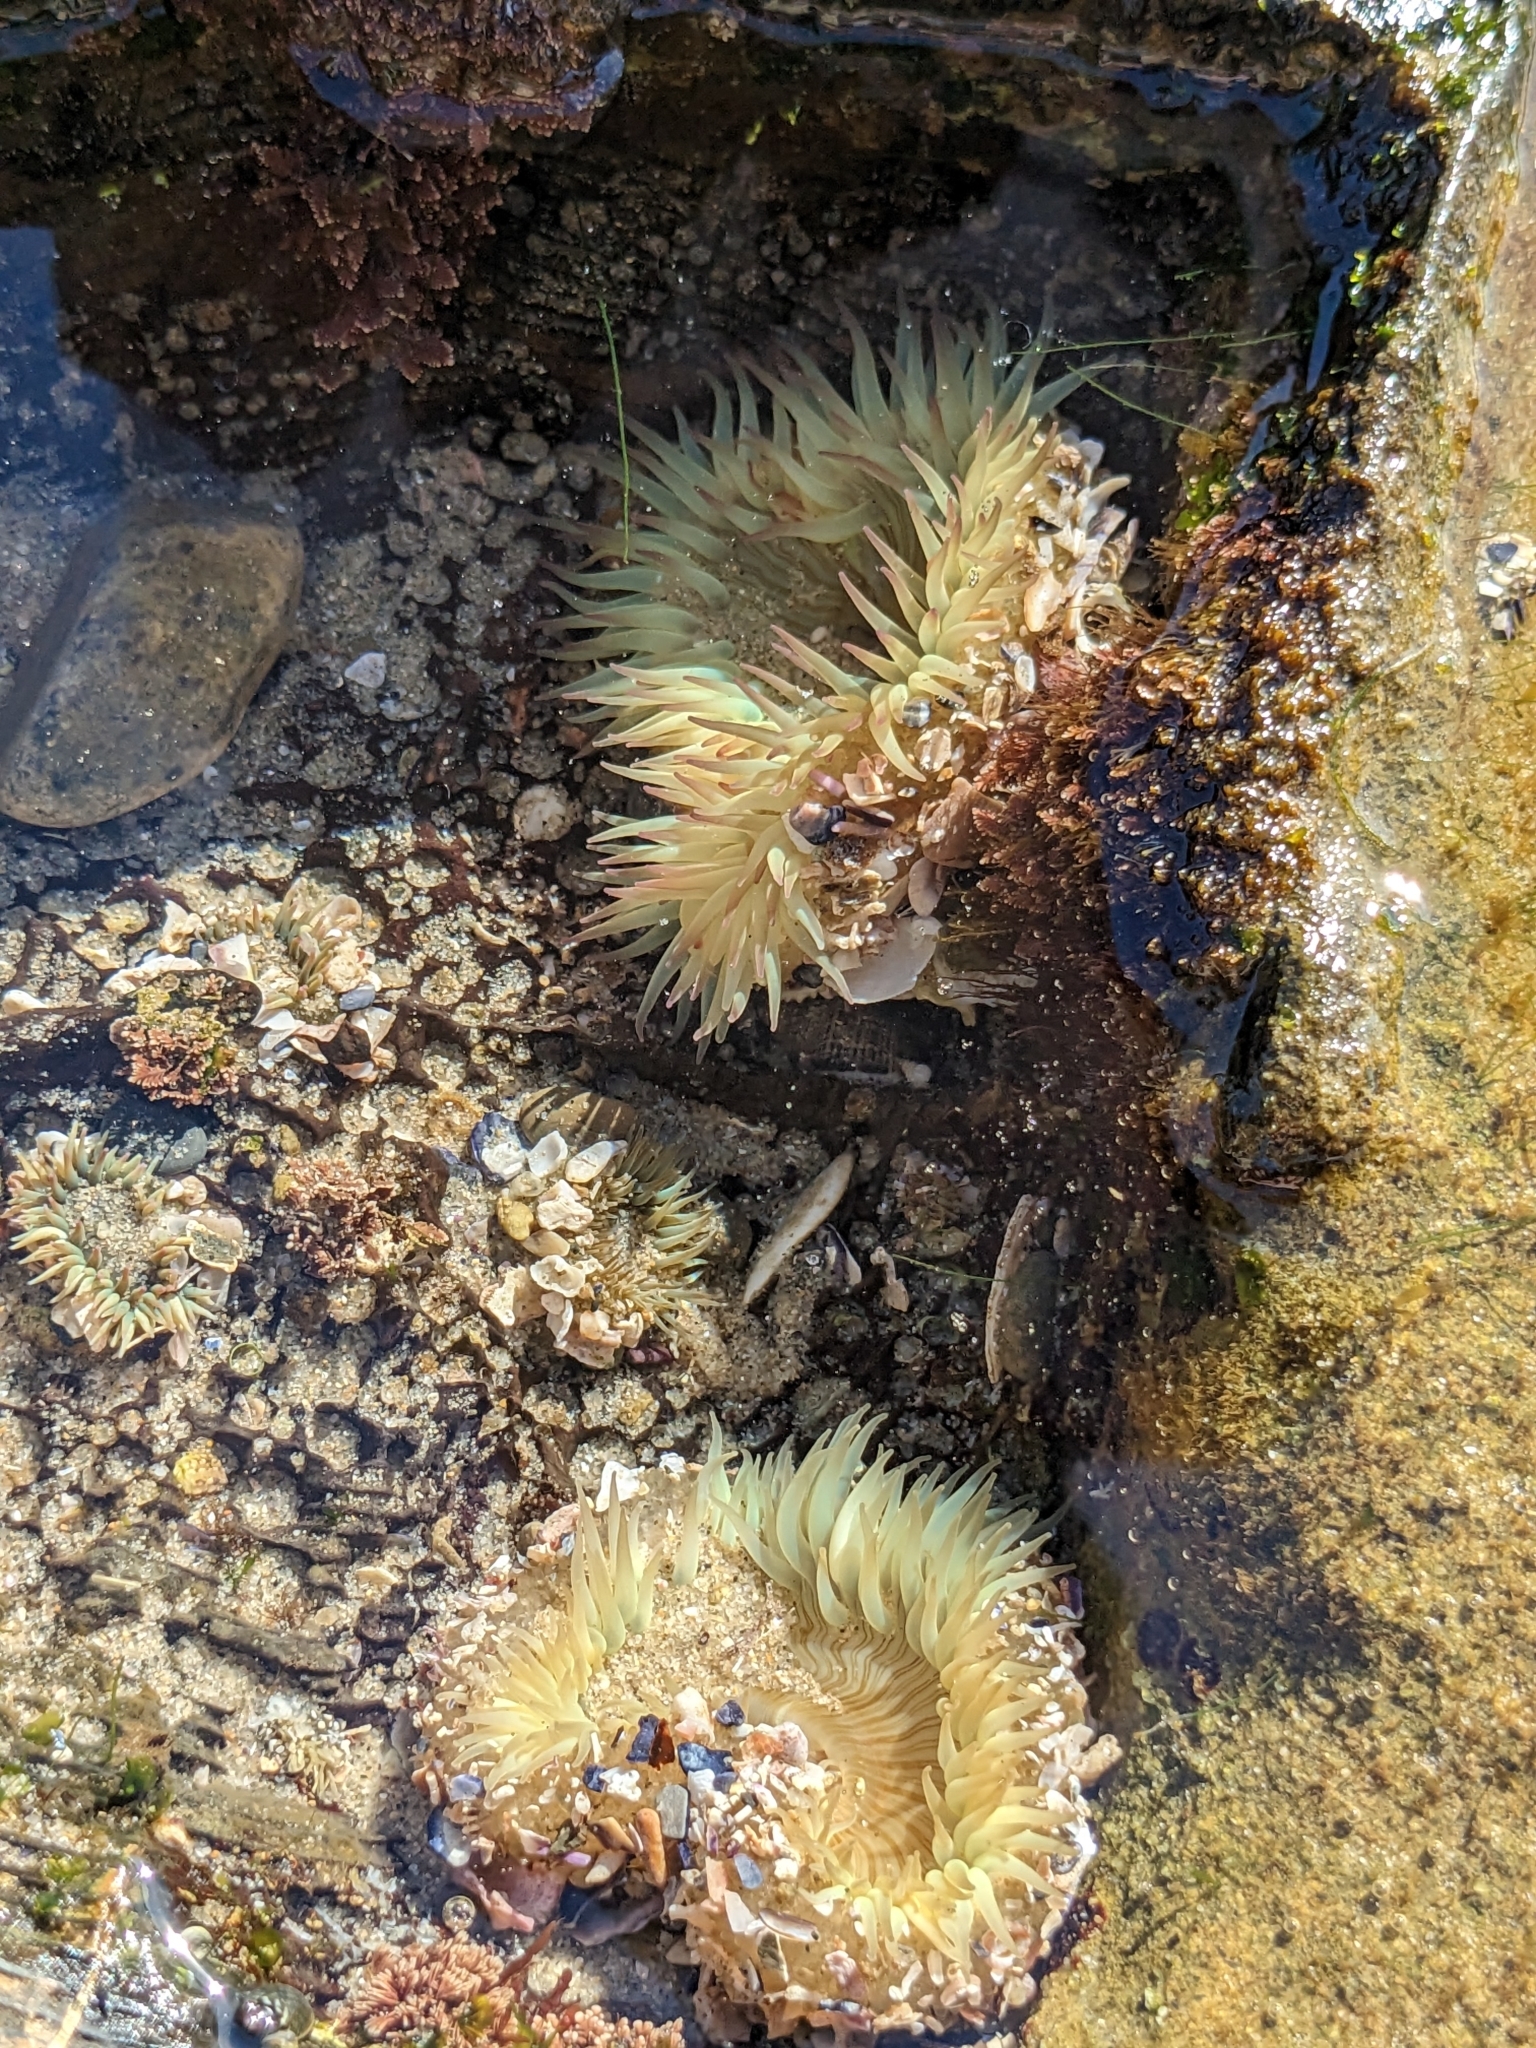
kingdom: Animalia
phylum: Cnidaria
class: Anthozoa
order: Actiniaria
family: Actiniidae
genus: Anthopleura
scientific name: Anthopleura sola
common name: Sun anemone
